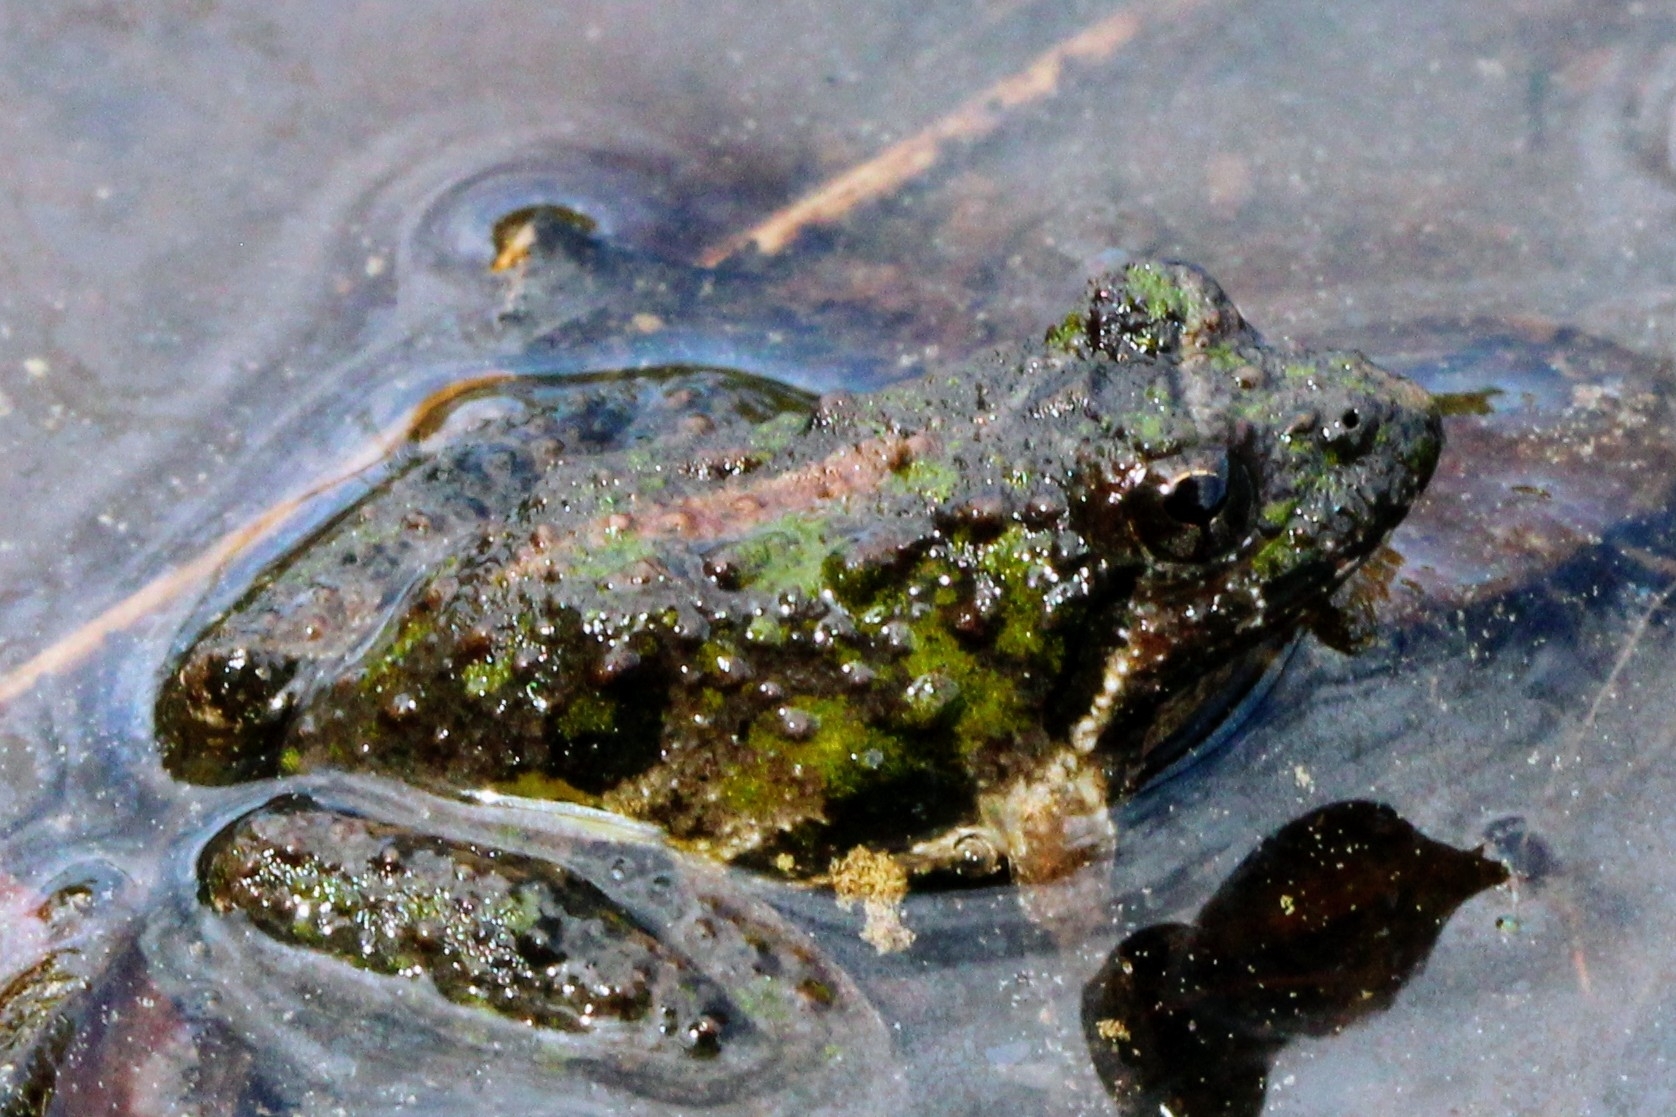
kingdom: Animalia
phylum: Chordata
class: Amphibia
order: Anura
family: Hylidae
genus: Acris
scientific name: Acris crepitans
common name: Northern cricket frog
